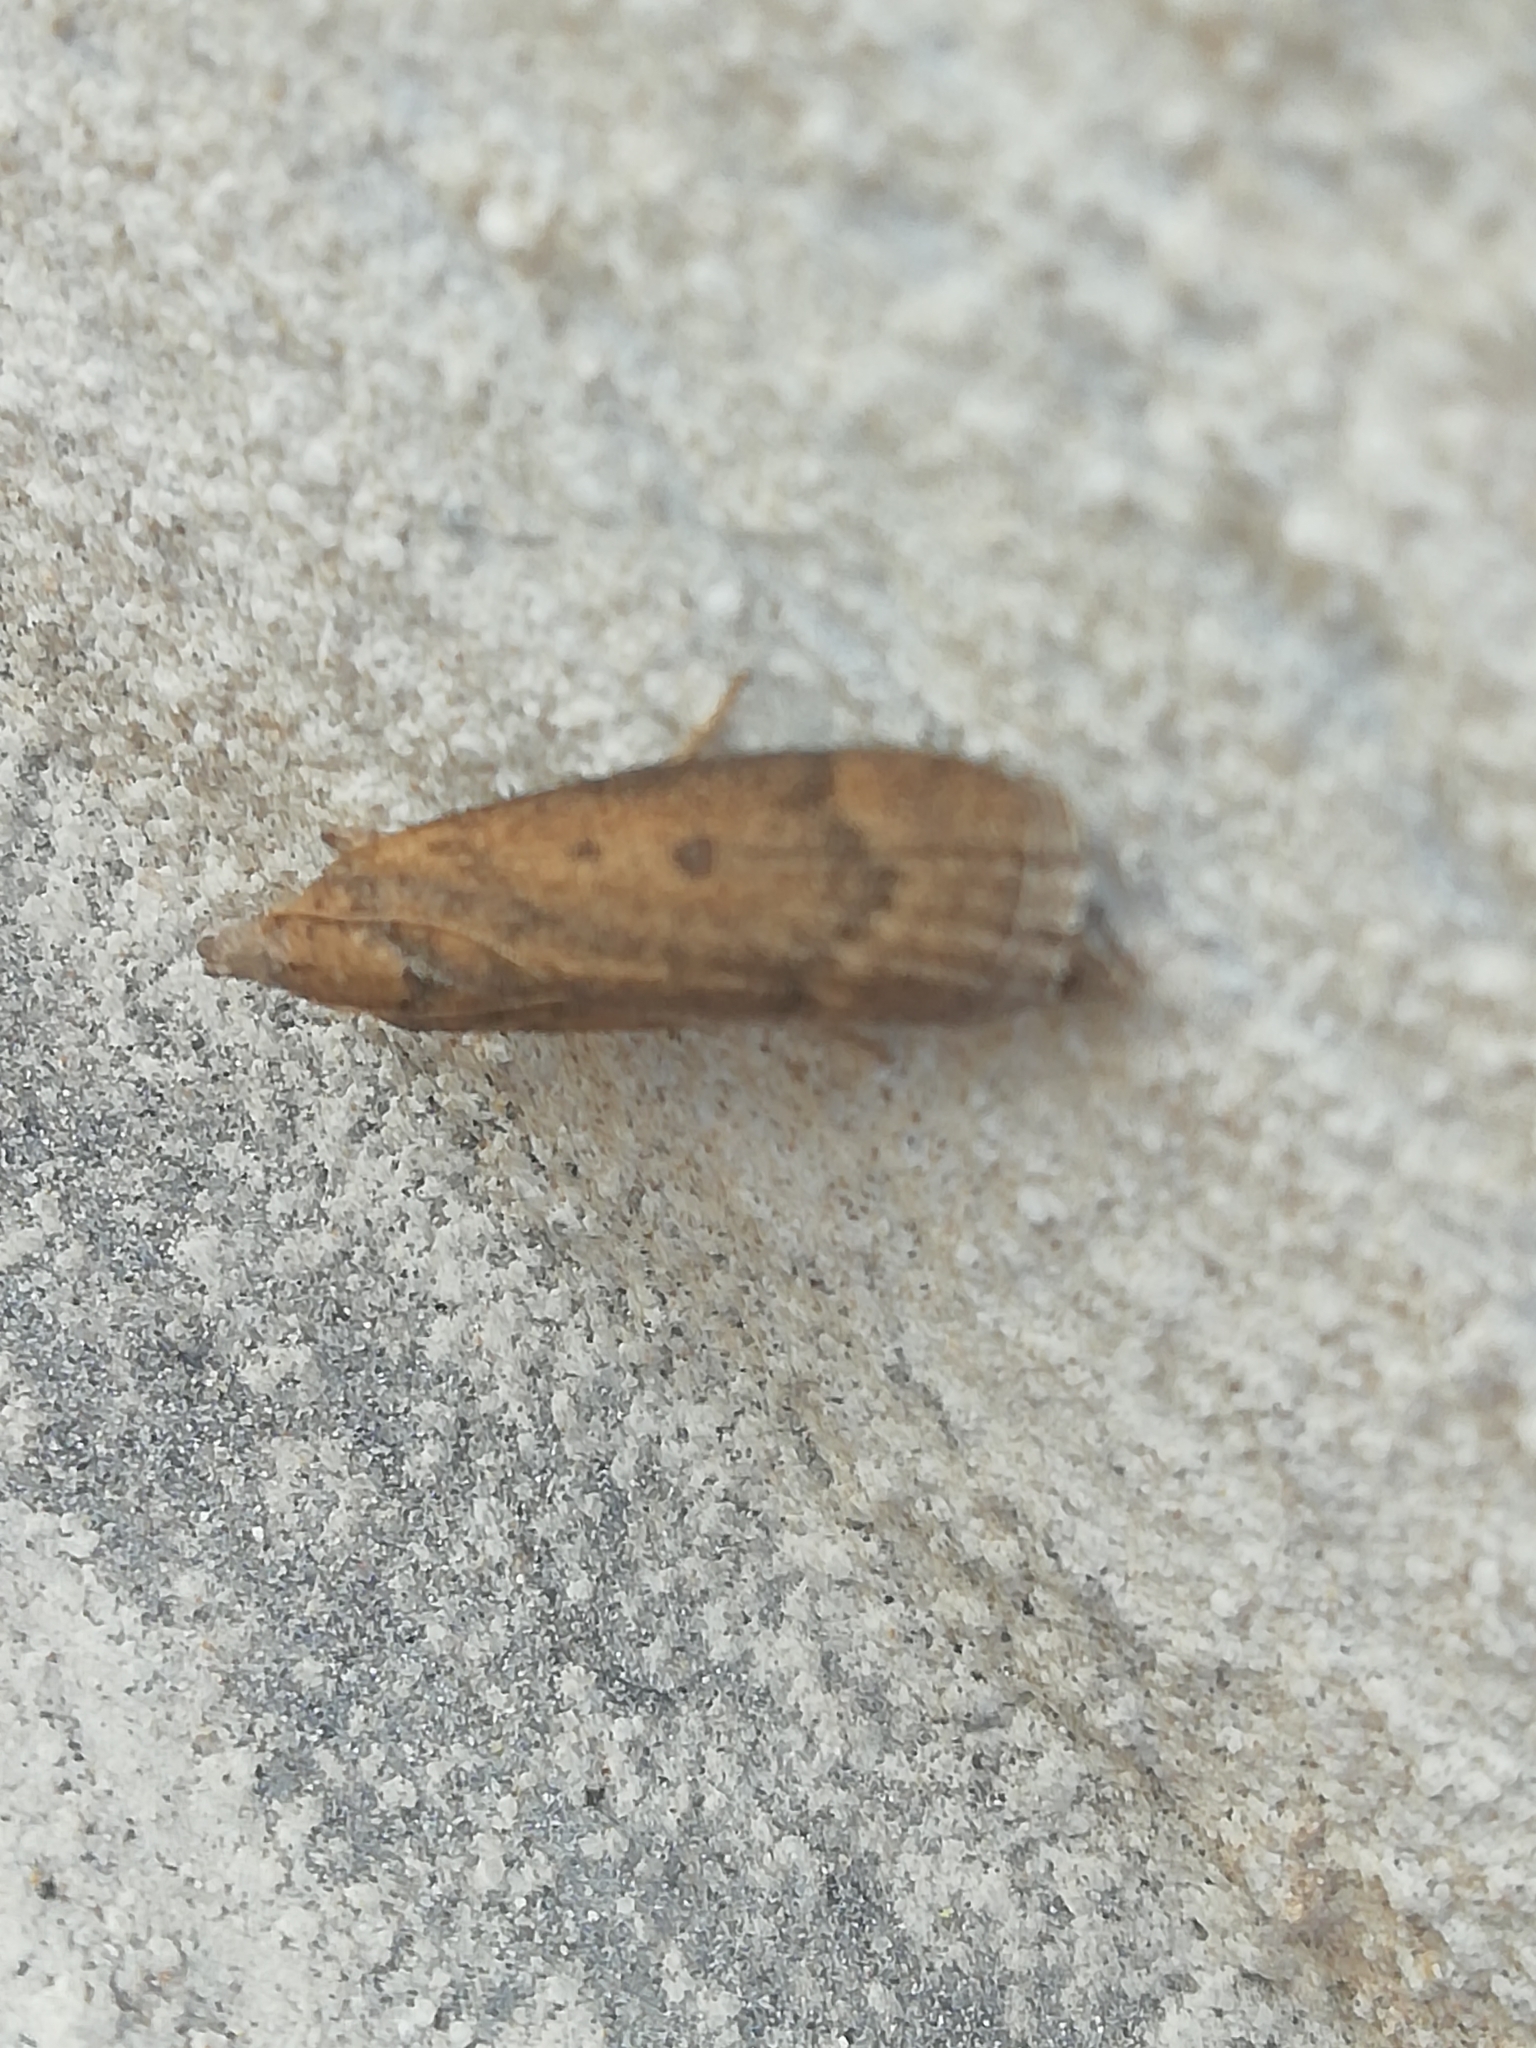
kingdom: Animalia
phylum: Arthropoda
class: Insecta
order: Lepidoptera
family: Pyralidae
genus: Lamoria
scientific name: Lamoria anella
